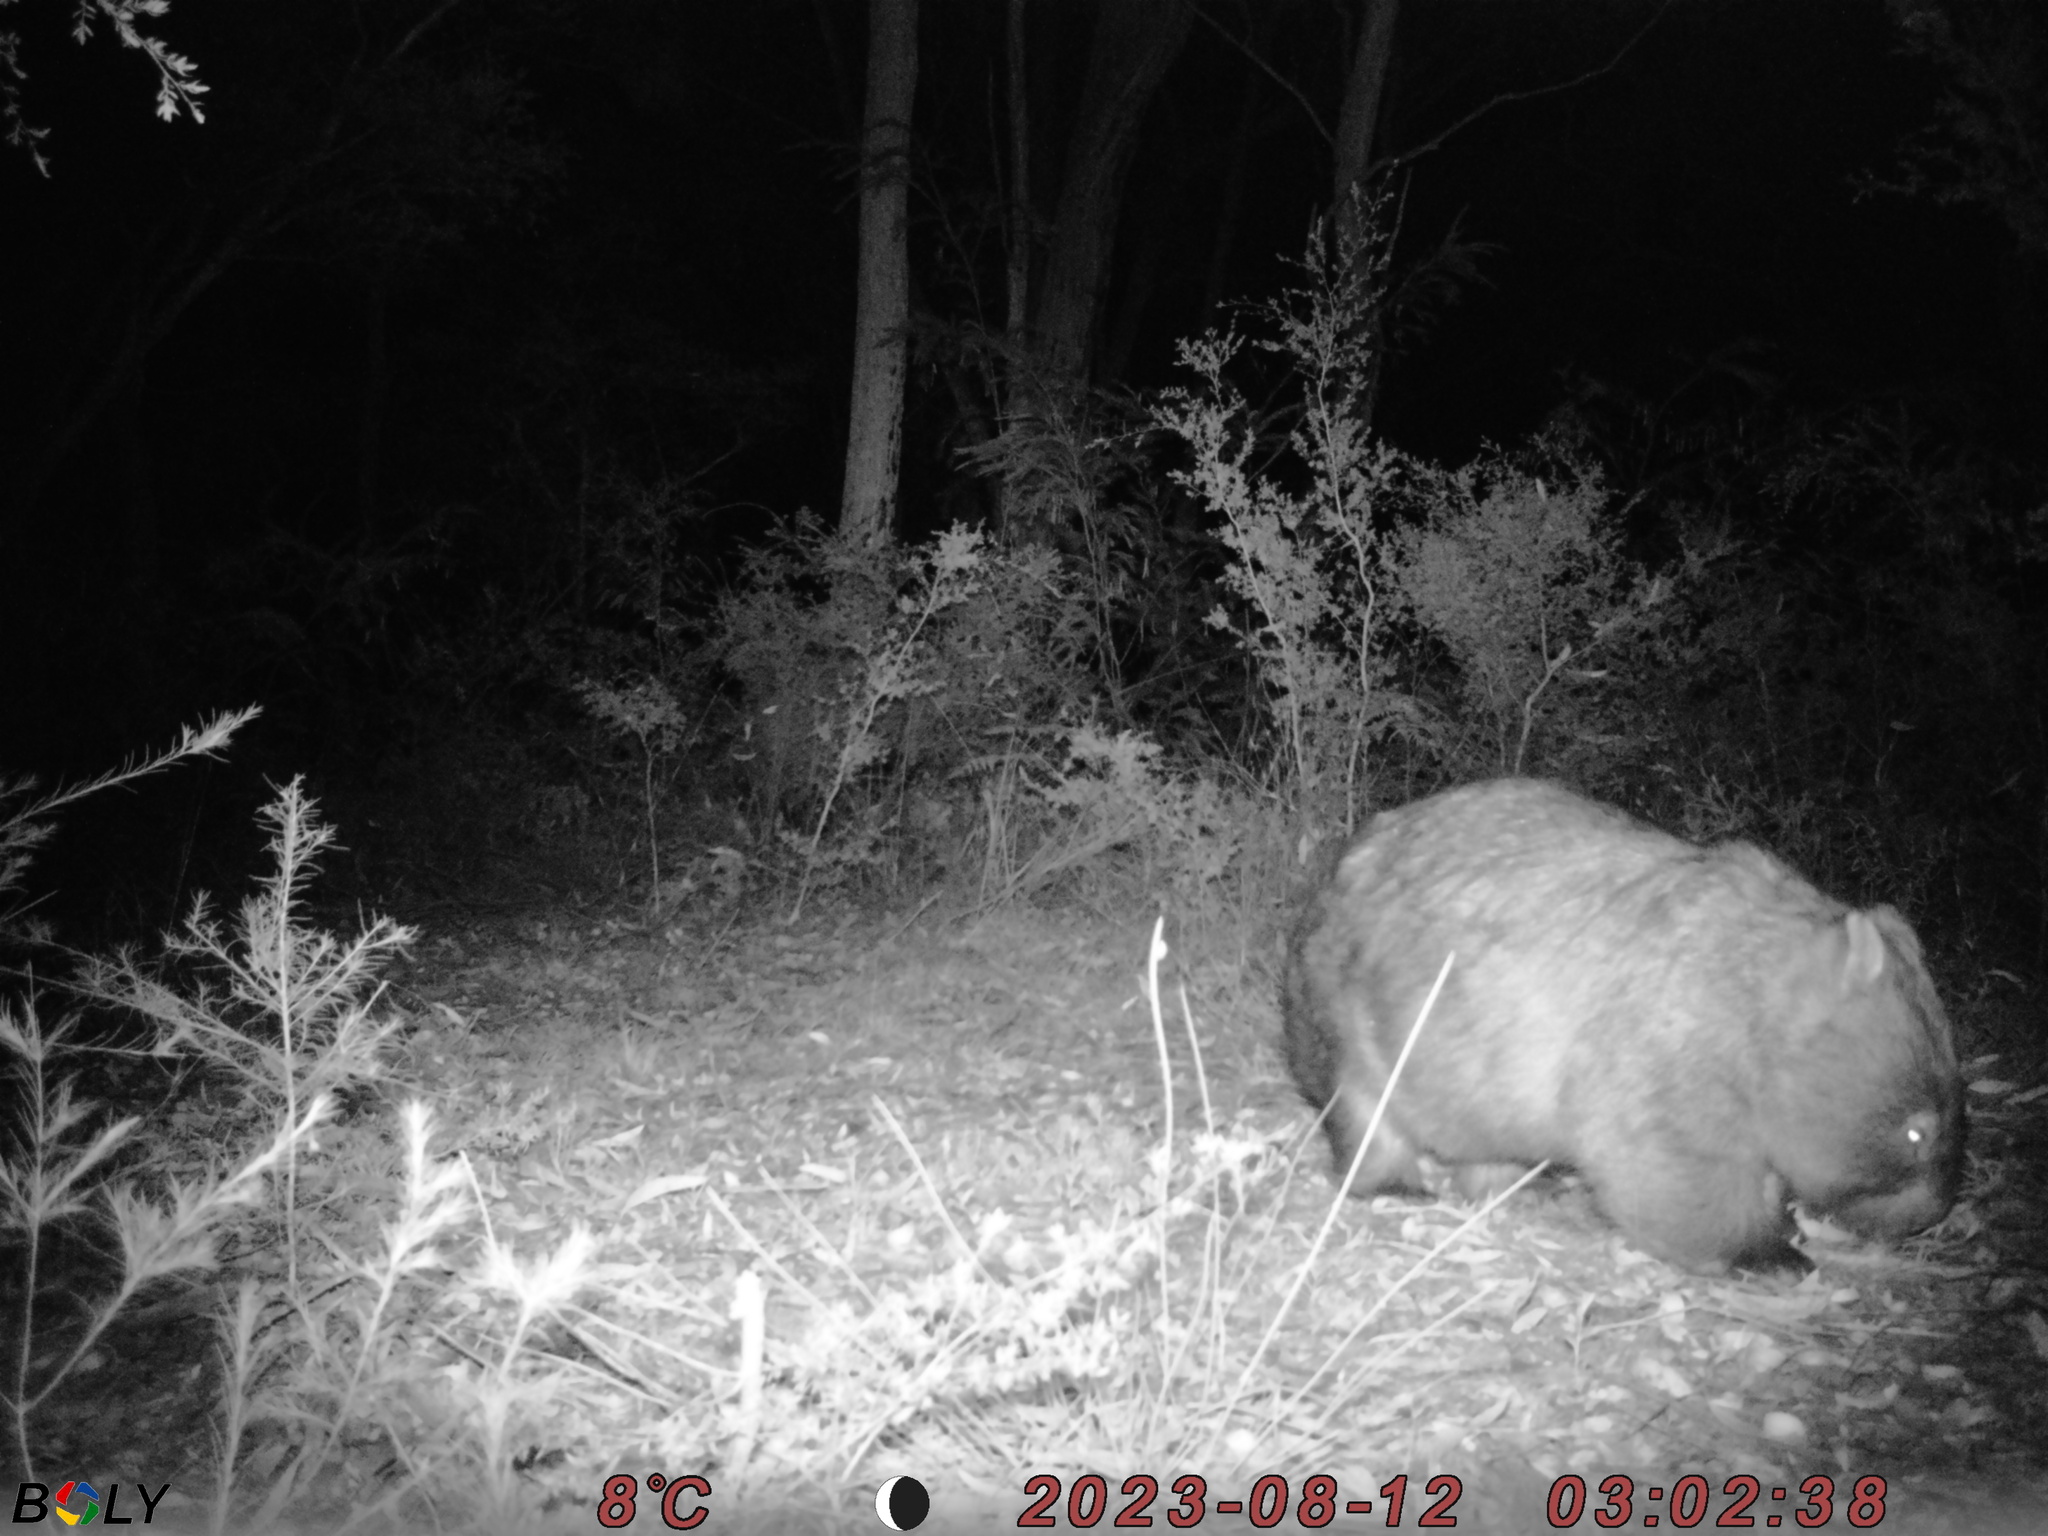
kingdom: Animalia
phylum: Chordata
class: Mammalia
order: Diprotodontia
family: Vombatidae
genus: Vombatus
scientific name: Vombatus ursinus
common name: Common wombat
